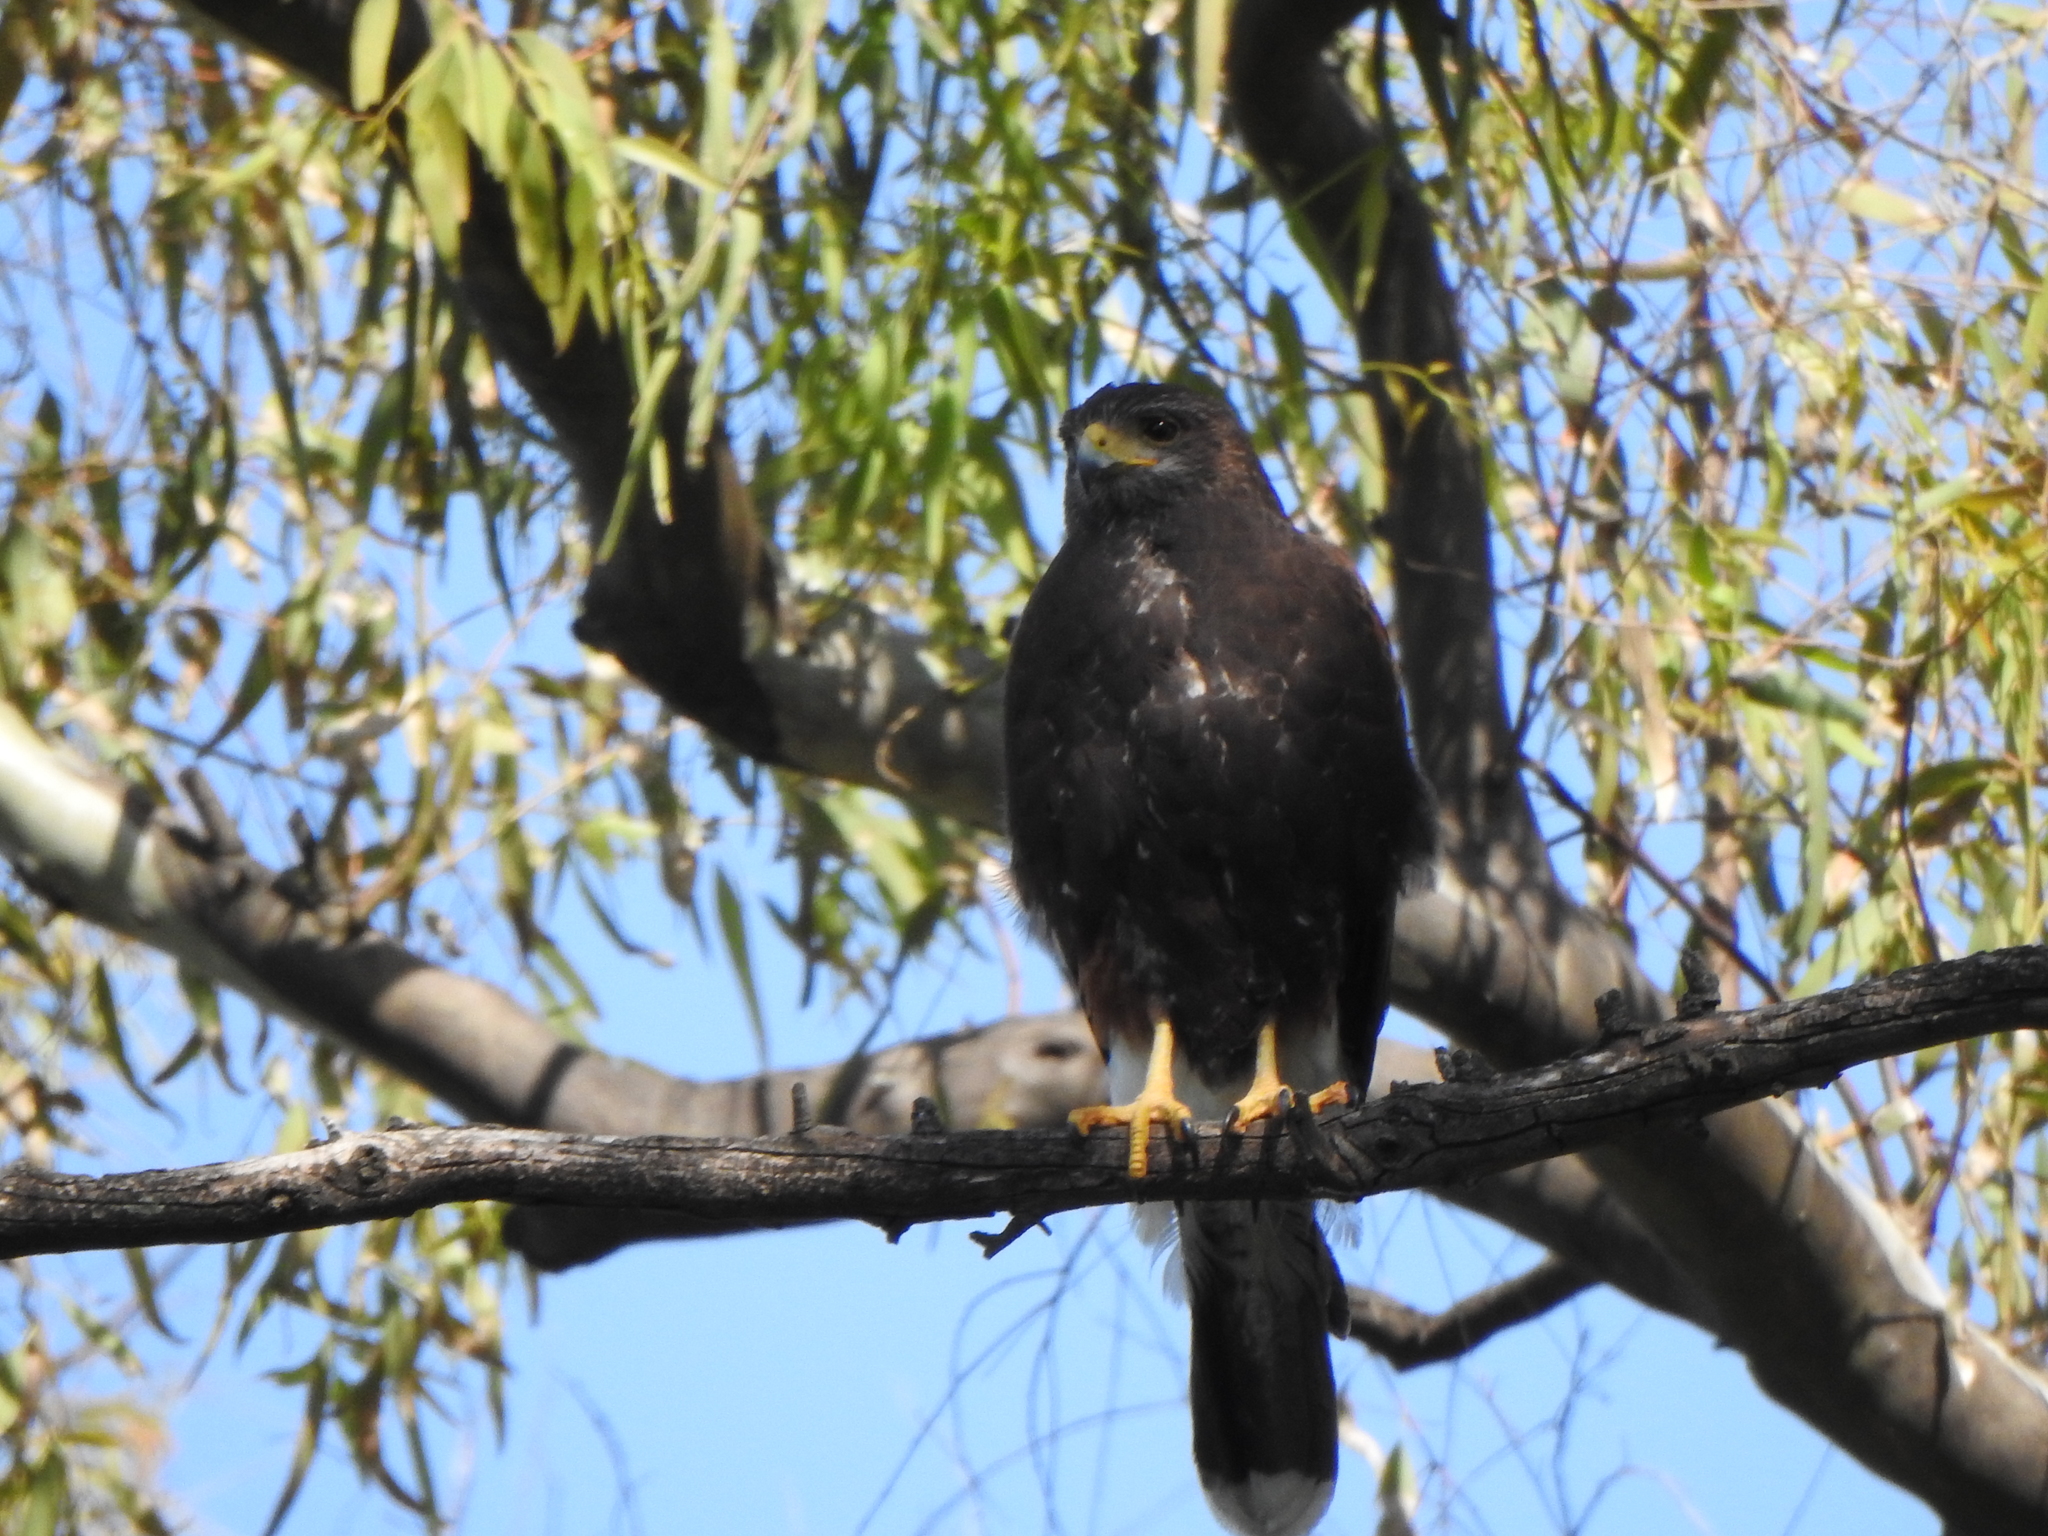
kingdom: Animalia
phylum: Chordata
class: Aves
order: Accipitriformes
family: Accipitridae
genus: Parabuteo
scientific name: Parabuteo unicinctus
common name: Harris's hawk
